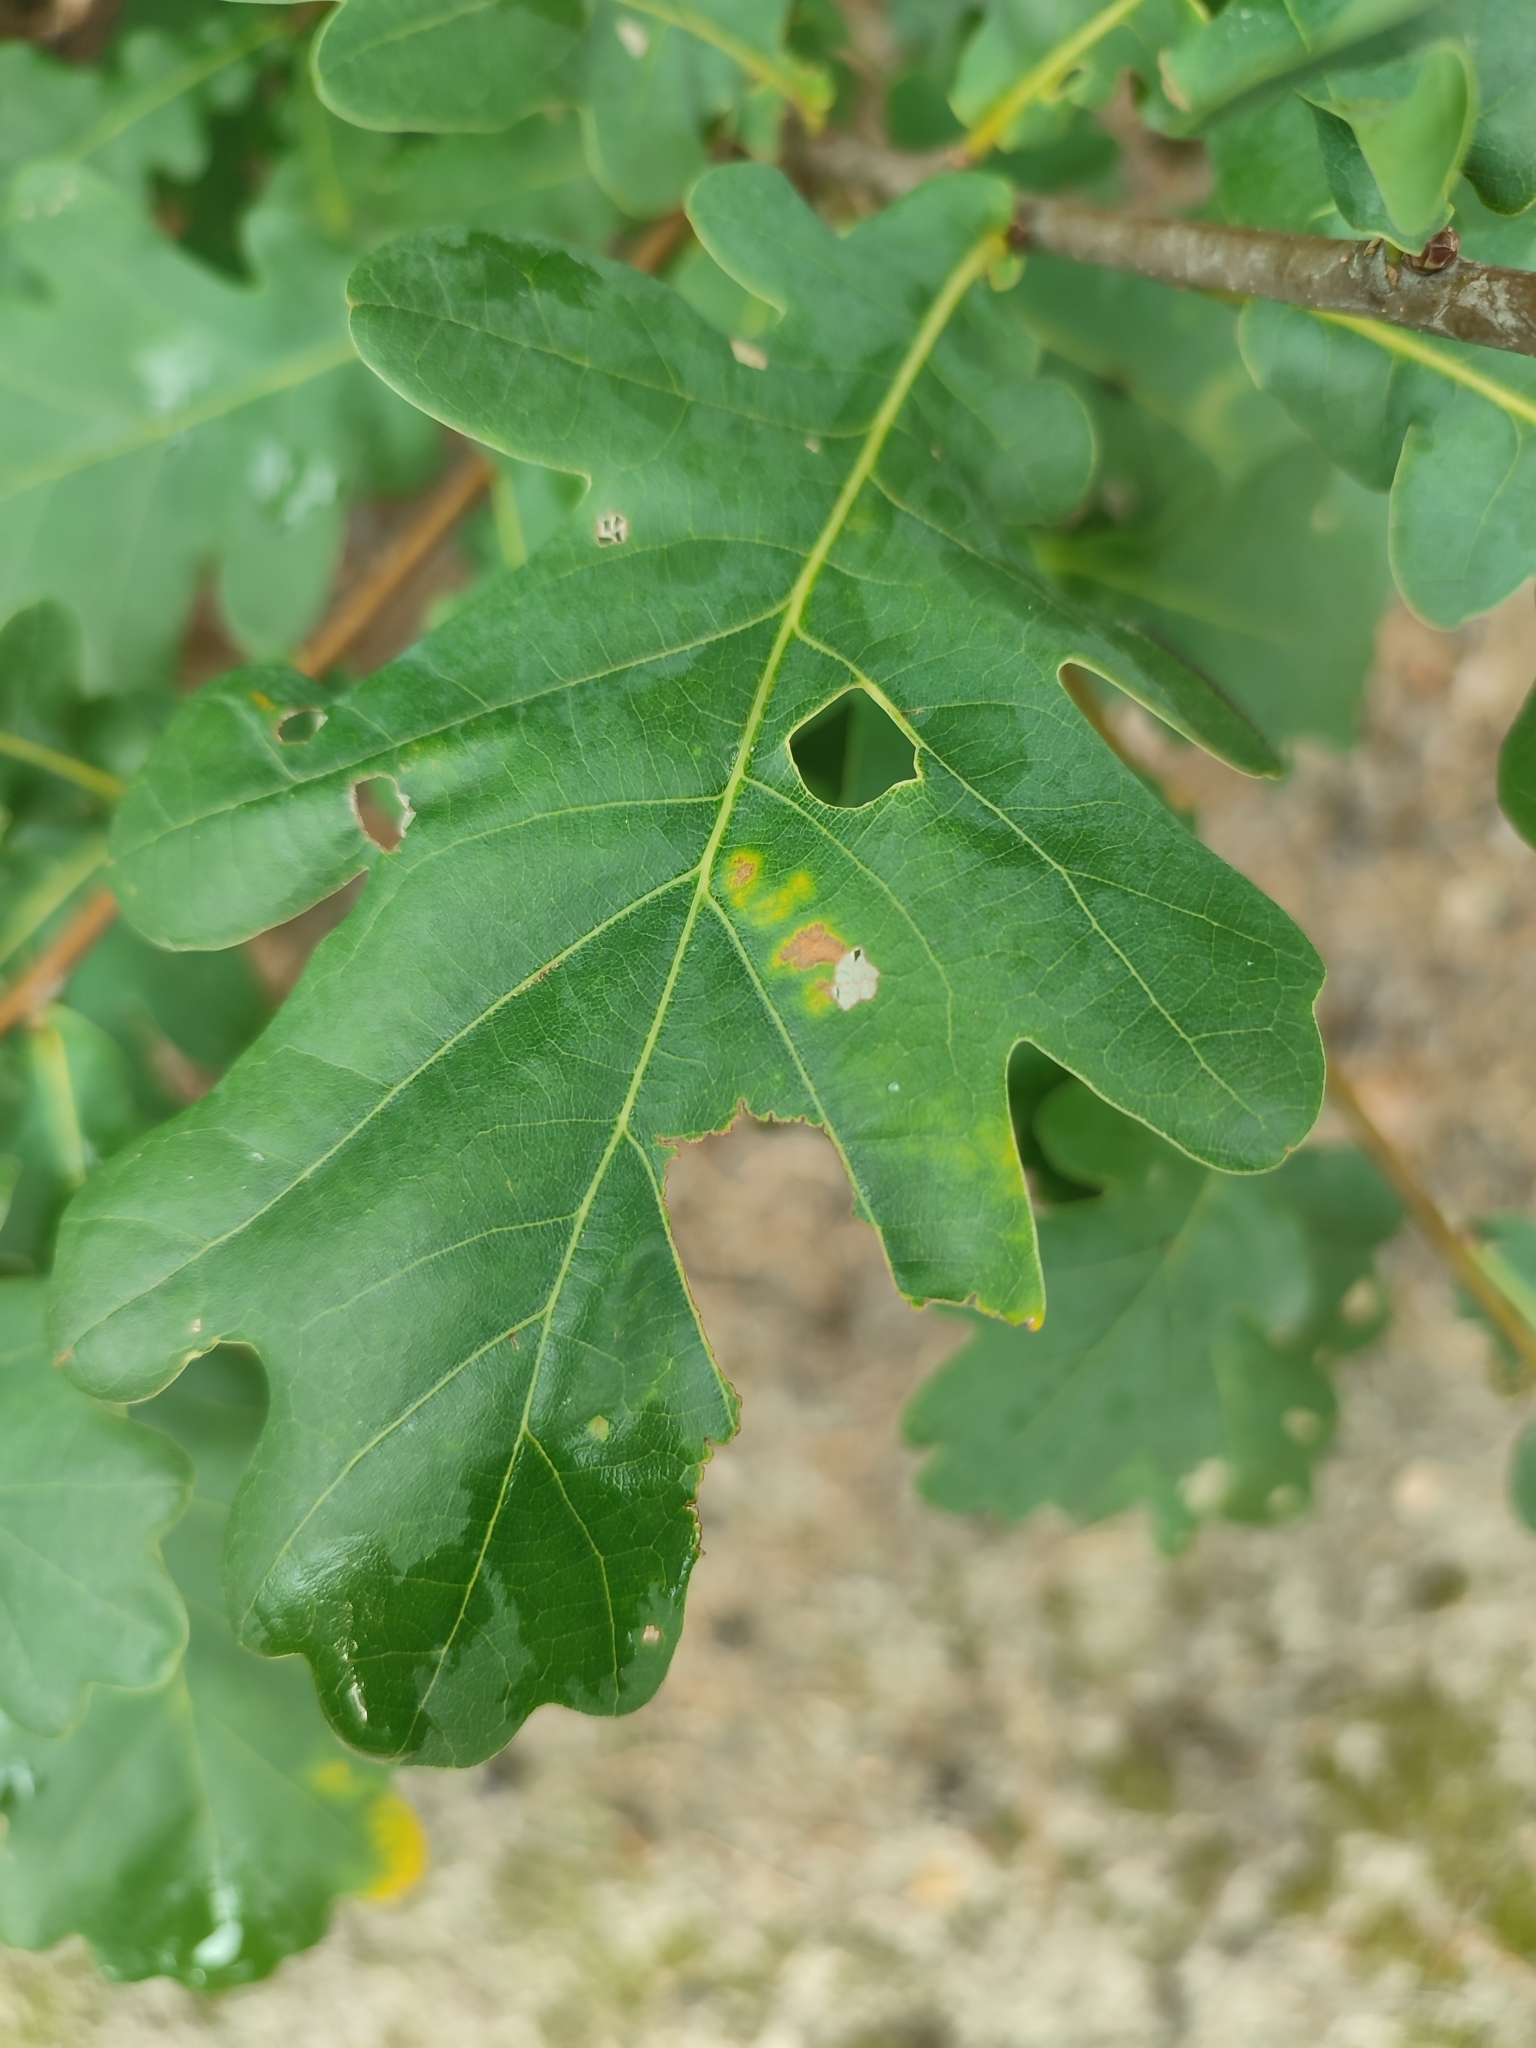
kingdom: Plantae
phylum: Tracheophyta
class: Magnoliopsida
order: Fagales
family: Fagaceae
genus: Quercus
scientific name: Quercus robur
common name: Pedunculate oak
